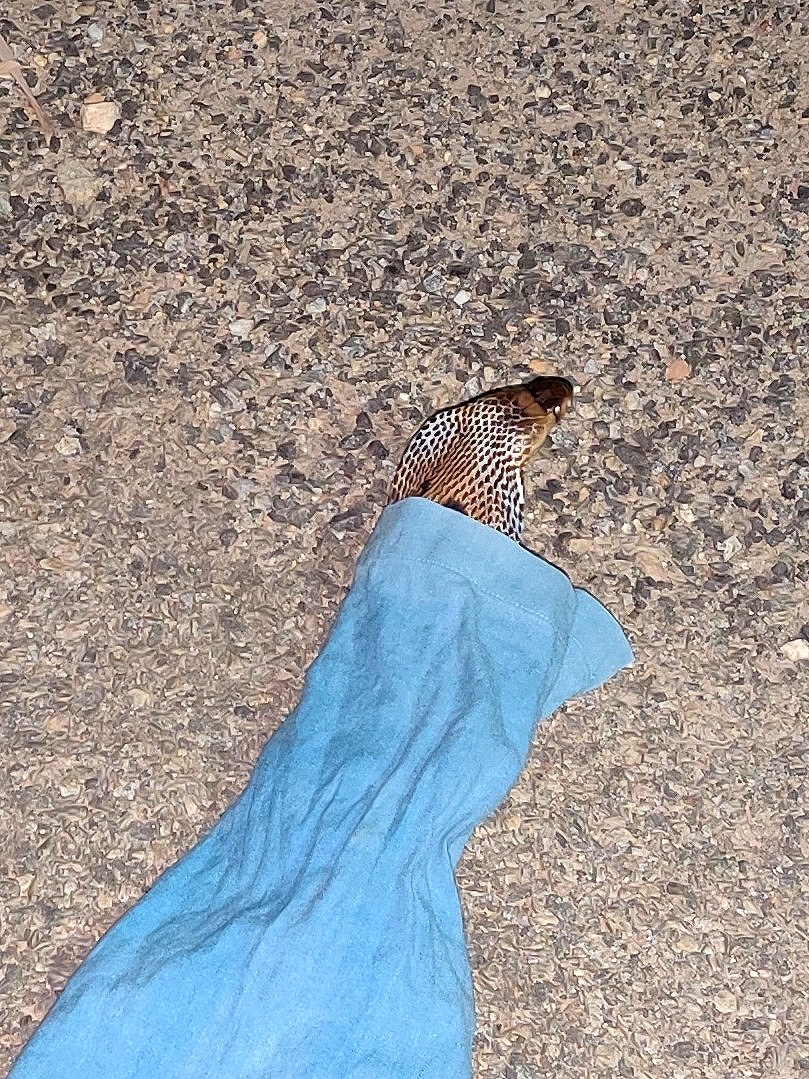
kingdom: Animalia
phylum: Chordata
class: Squamata
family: Elapidae
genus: Naja
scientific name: Naja naja
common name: Indian cobra
